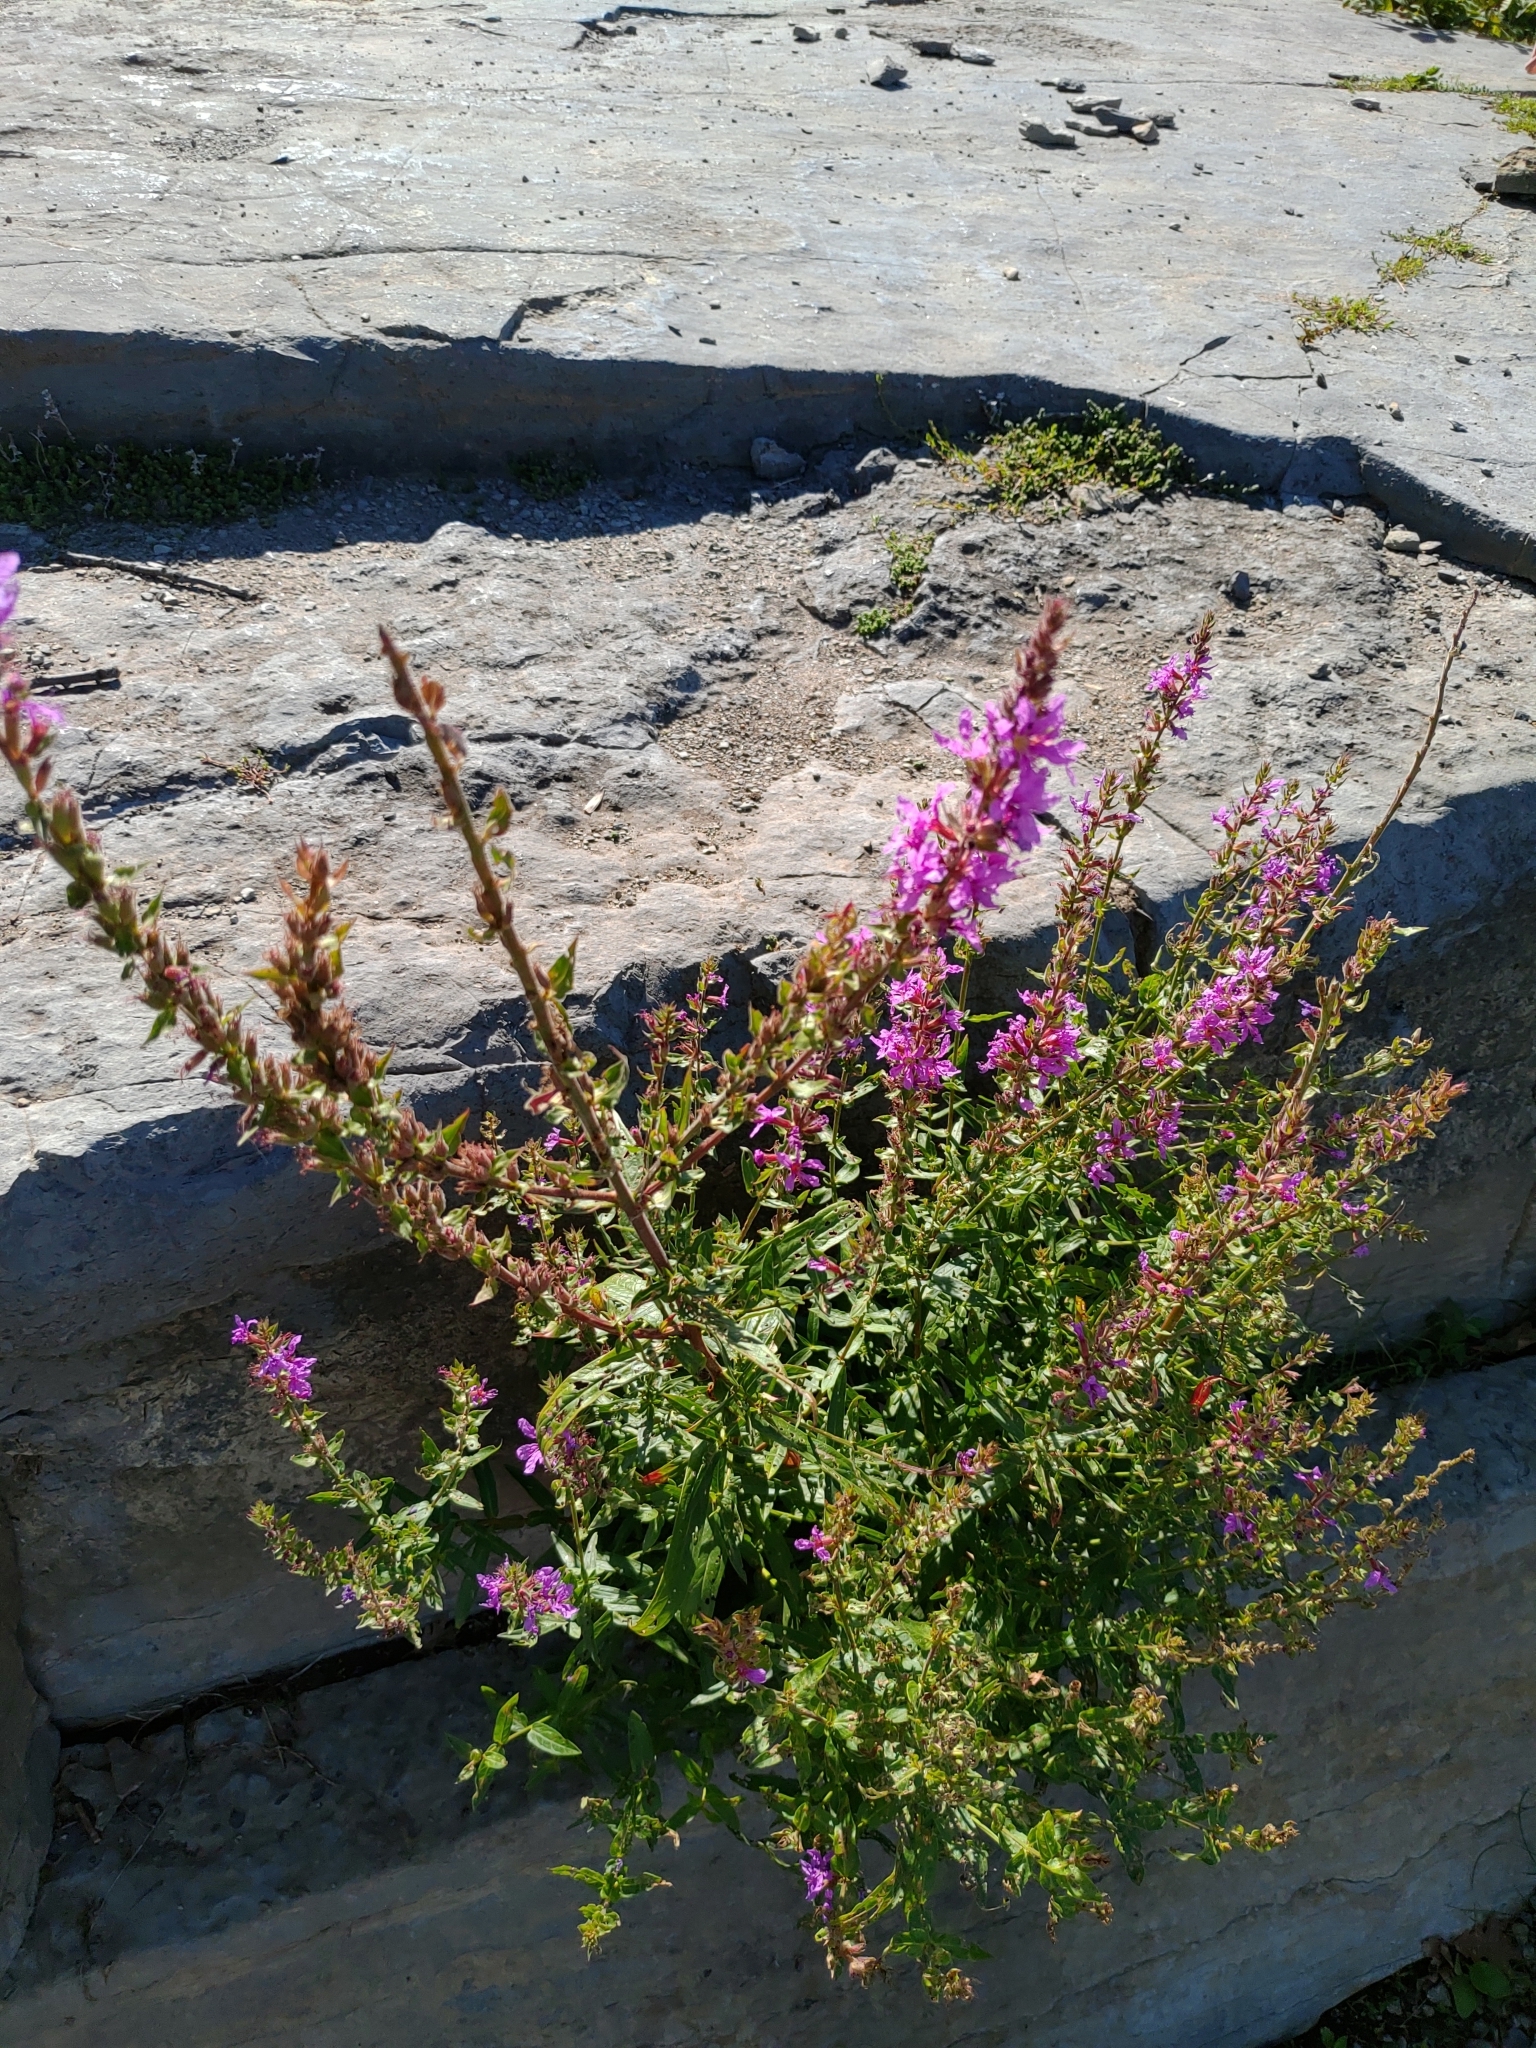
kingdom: Plantae
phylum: Tracheophyta
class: Magnoliopsida
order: Myrtales
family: Lythraceae
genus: Lythrum
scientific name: Lythrum salicaria
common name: Purple loosestrife
